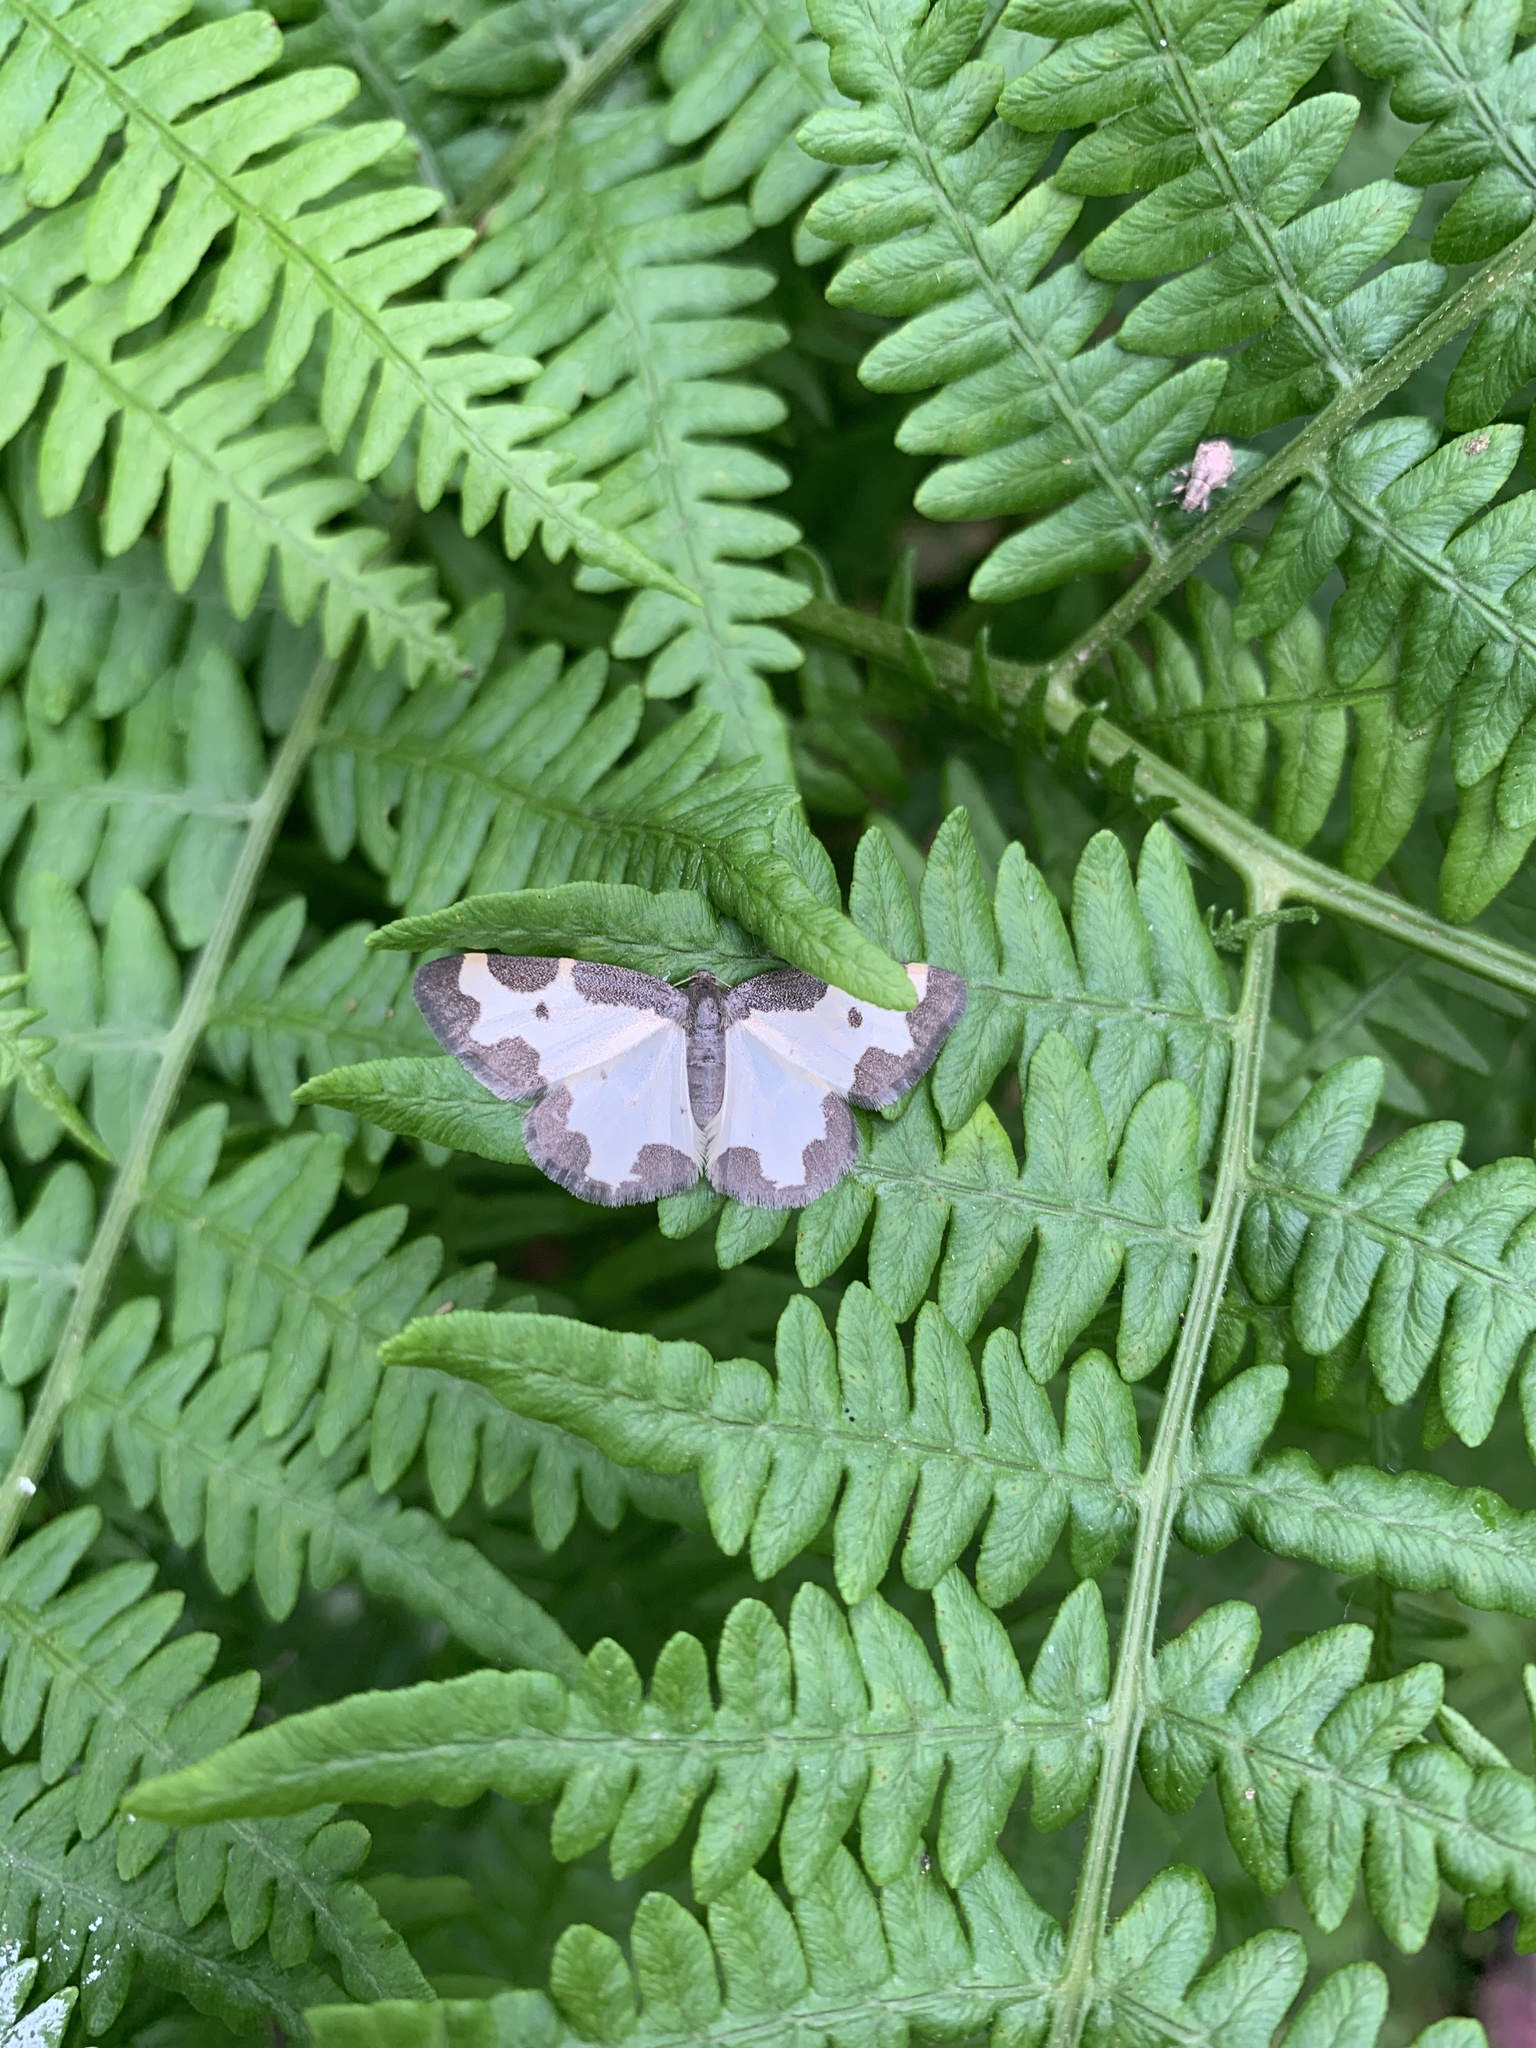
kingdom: Animalia
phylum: Arthropoda
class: Insecta
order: Lepidoptera
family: Geometridae
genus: Lomaspilis
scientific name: Lomaspilis marginata
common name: Clouded border
